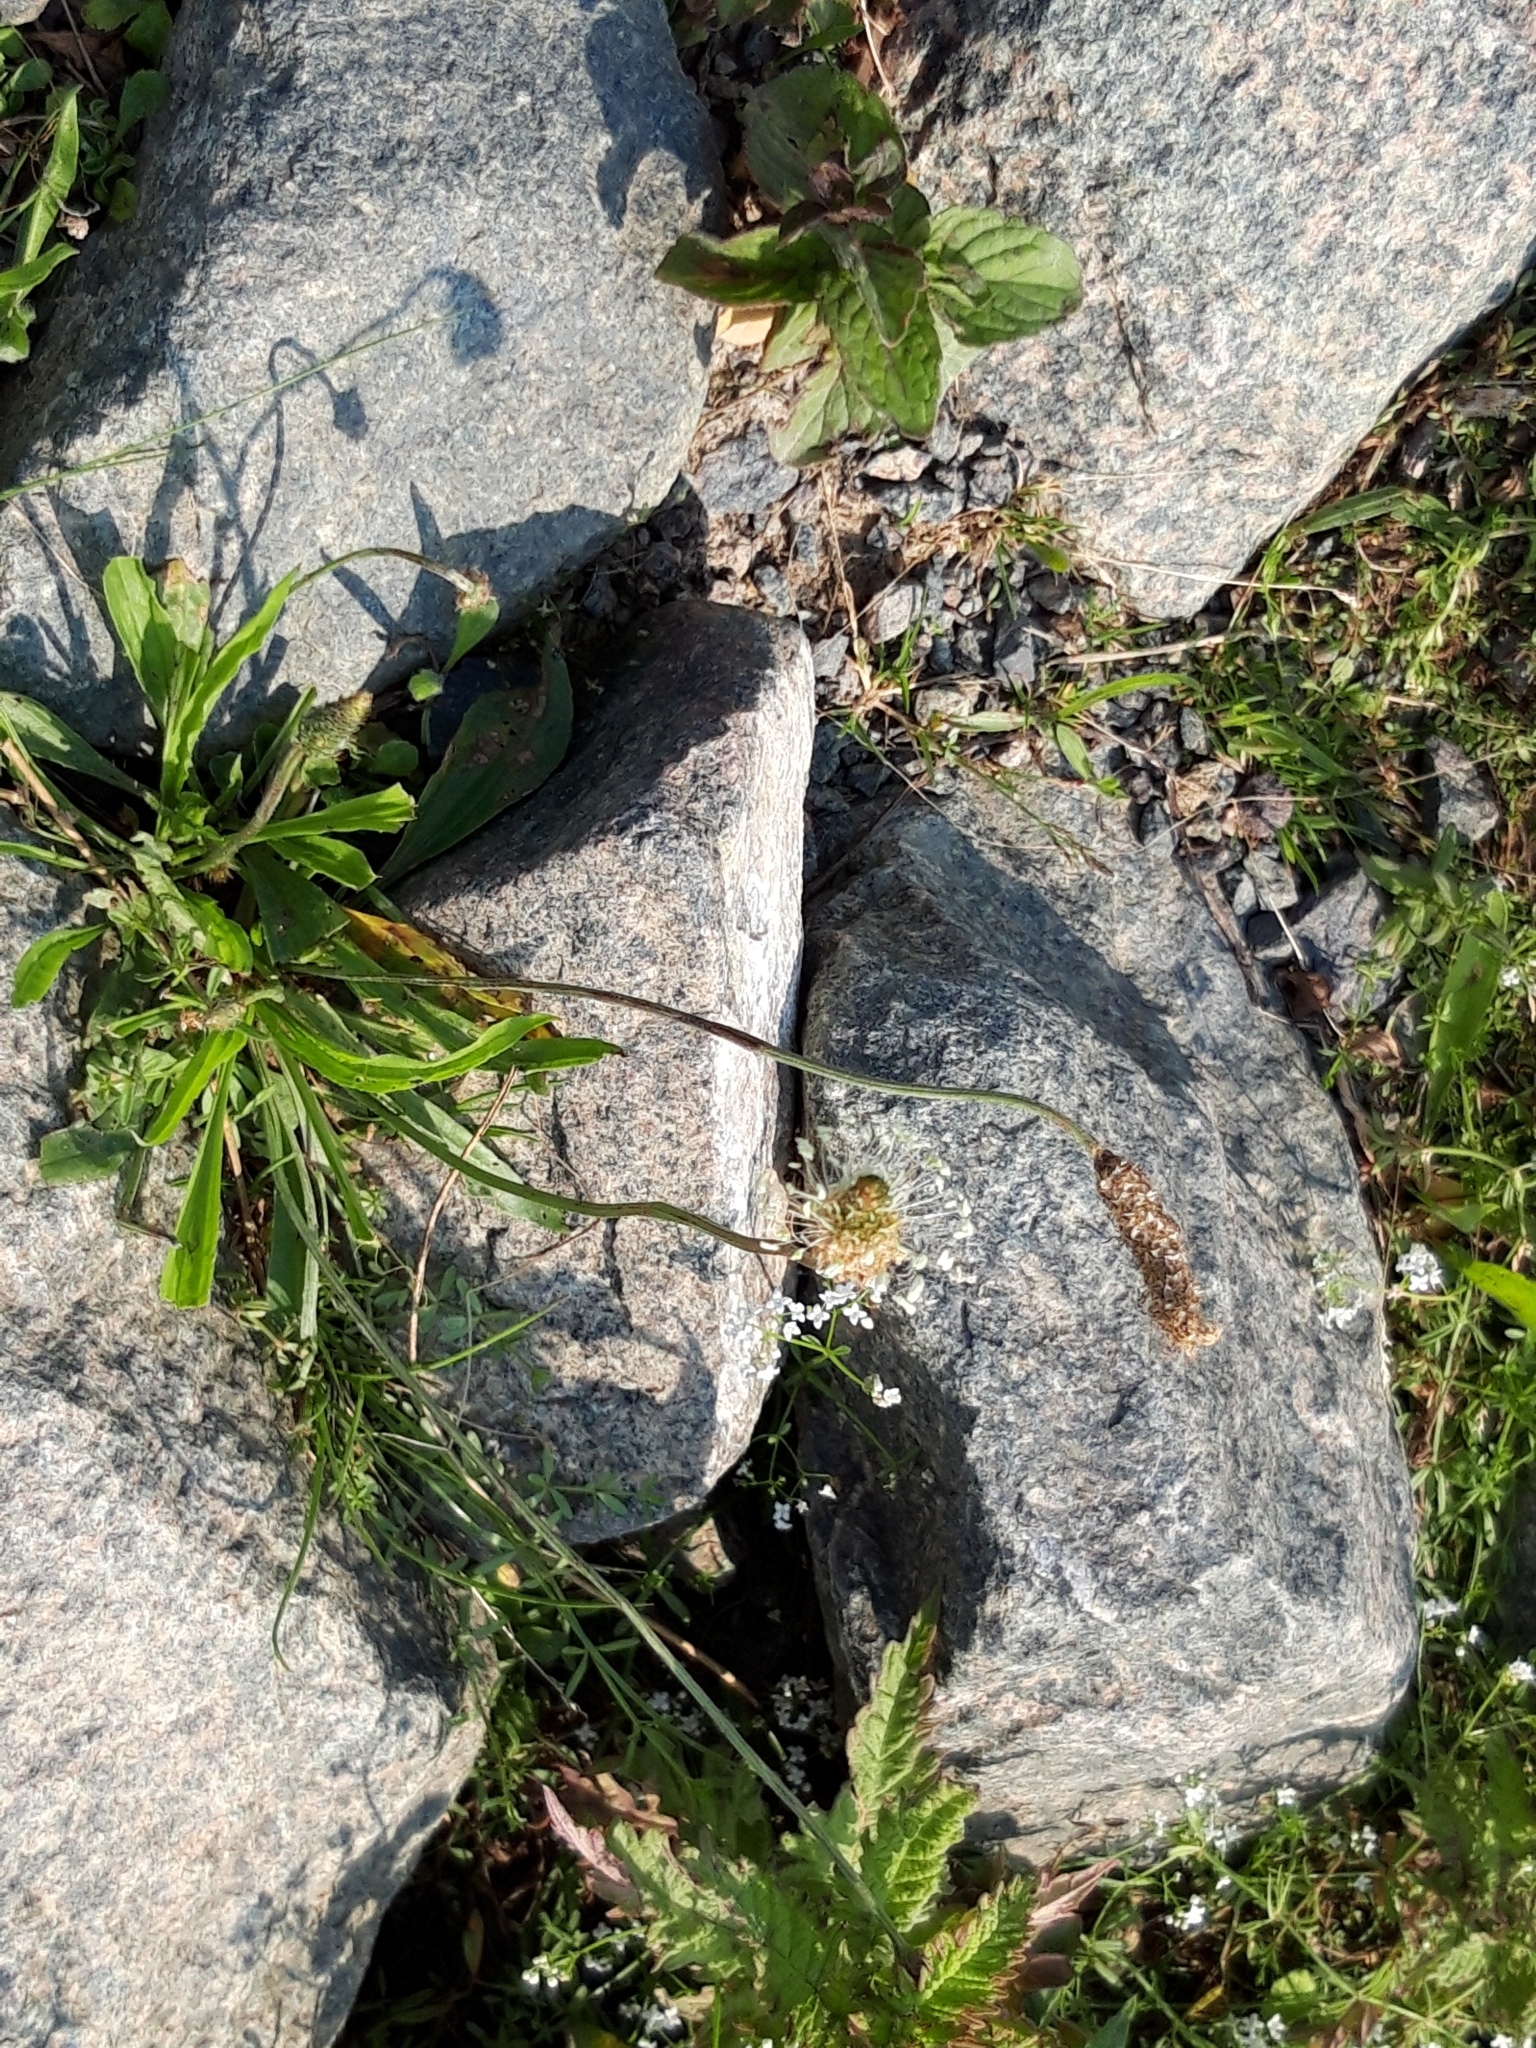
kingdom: Plantae
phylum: Tracheophyta
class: Magnoliopsida
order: Lamiales
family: Plantaginaceae
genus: Plantago
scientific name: Plantago lanceolata
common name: Ribwort plantain
